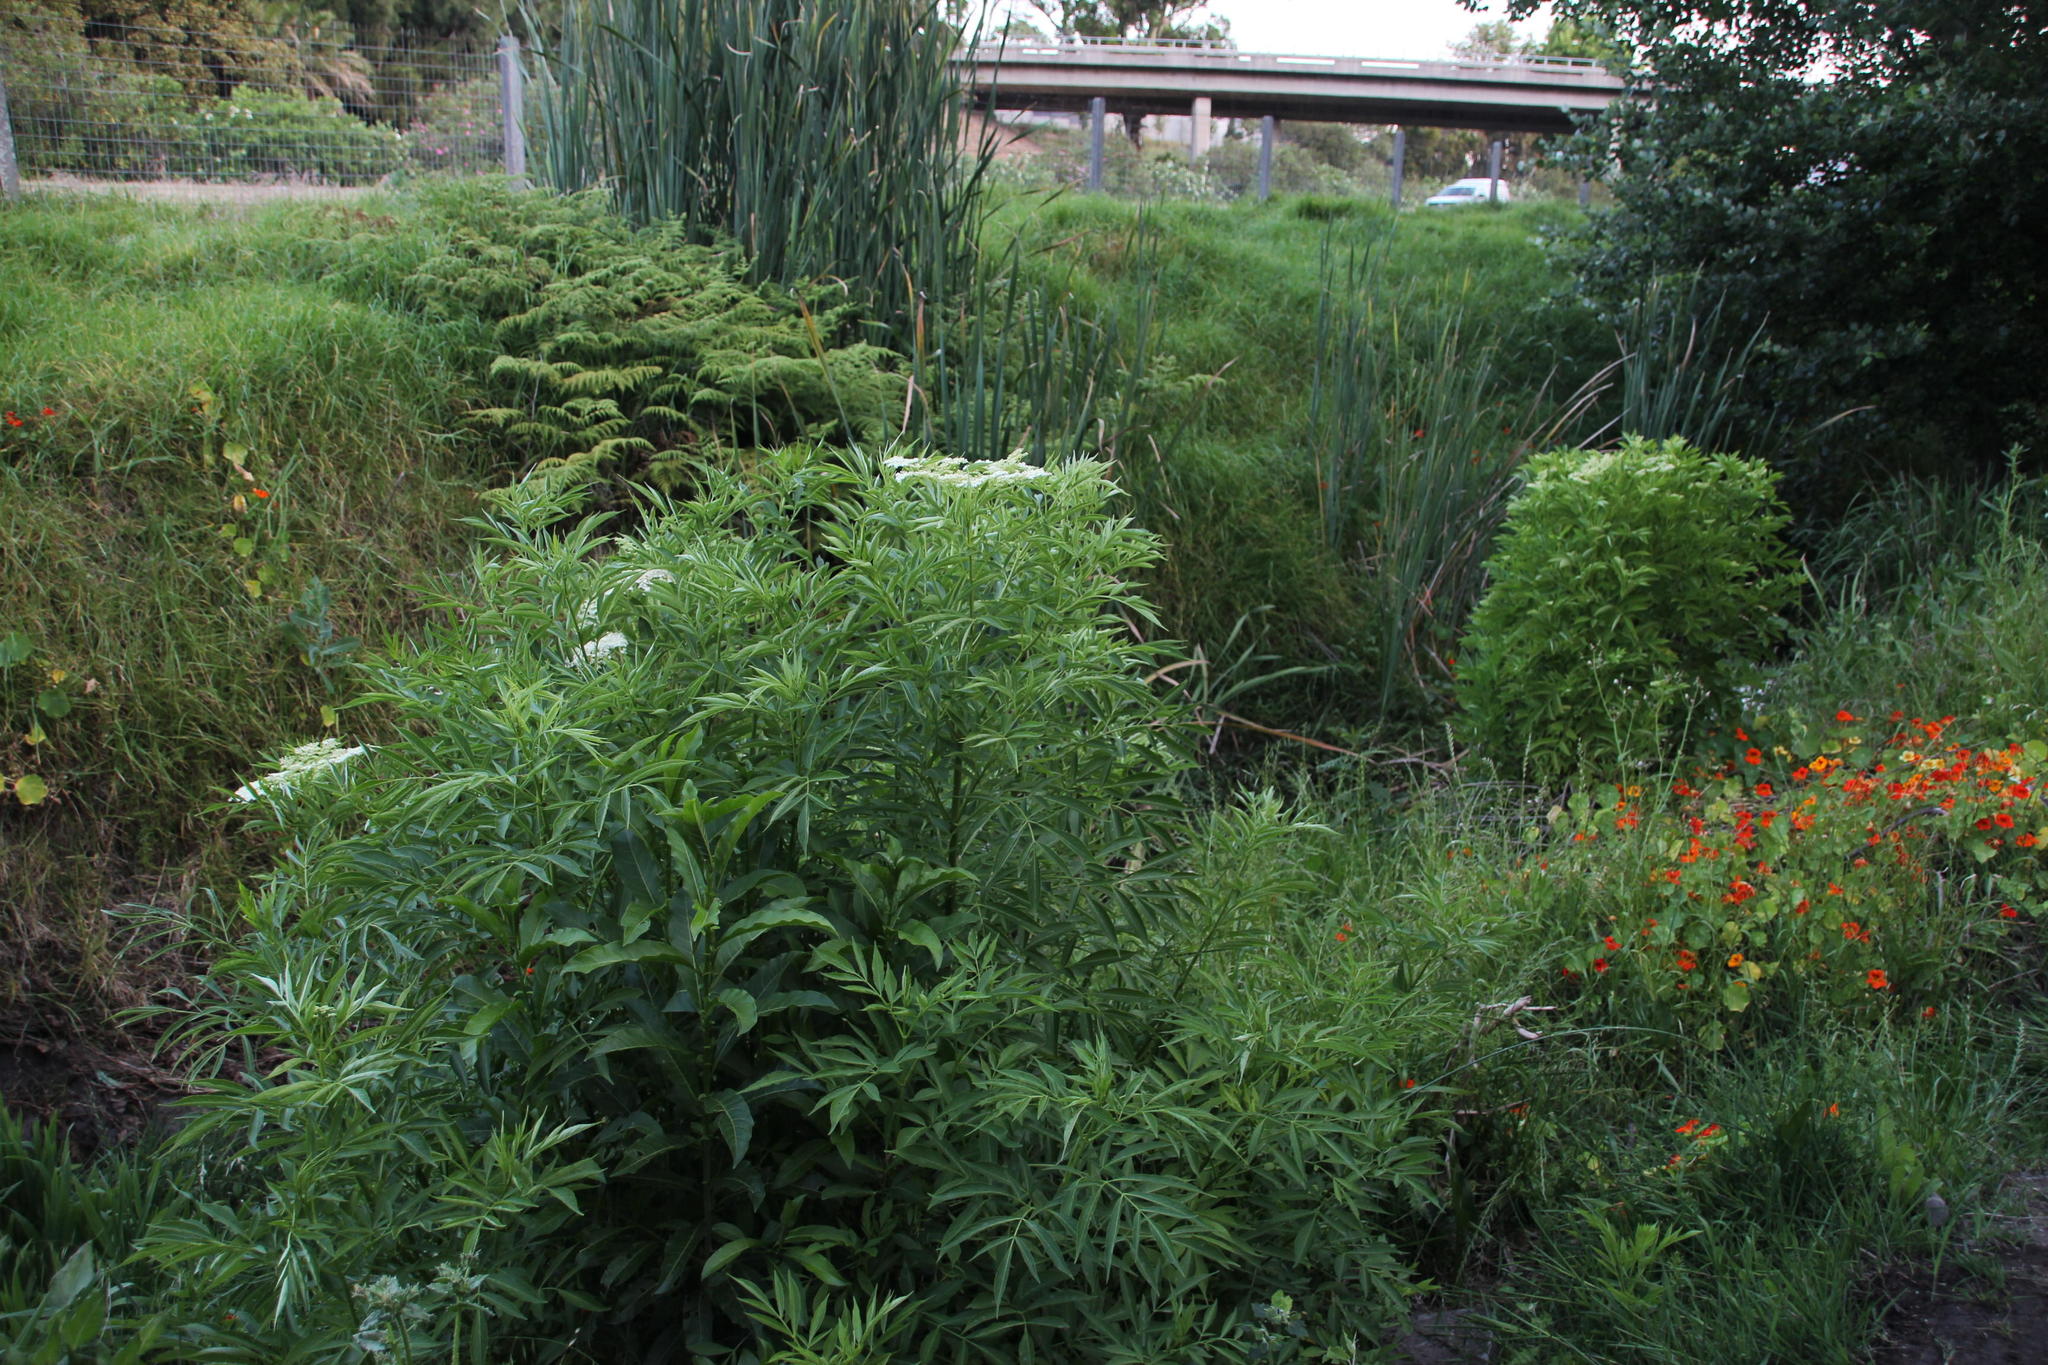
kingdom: Plantae
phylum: Tracheophyta
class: Magnoliopsida
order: Dipsacales
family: Viburnaceae
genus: Sambucus
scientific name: Sambucus nigra
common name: Elder
